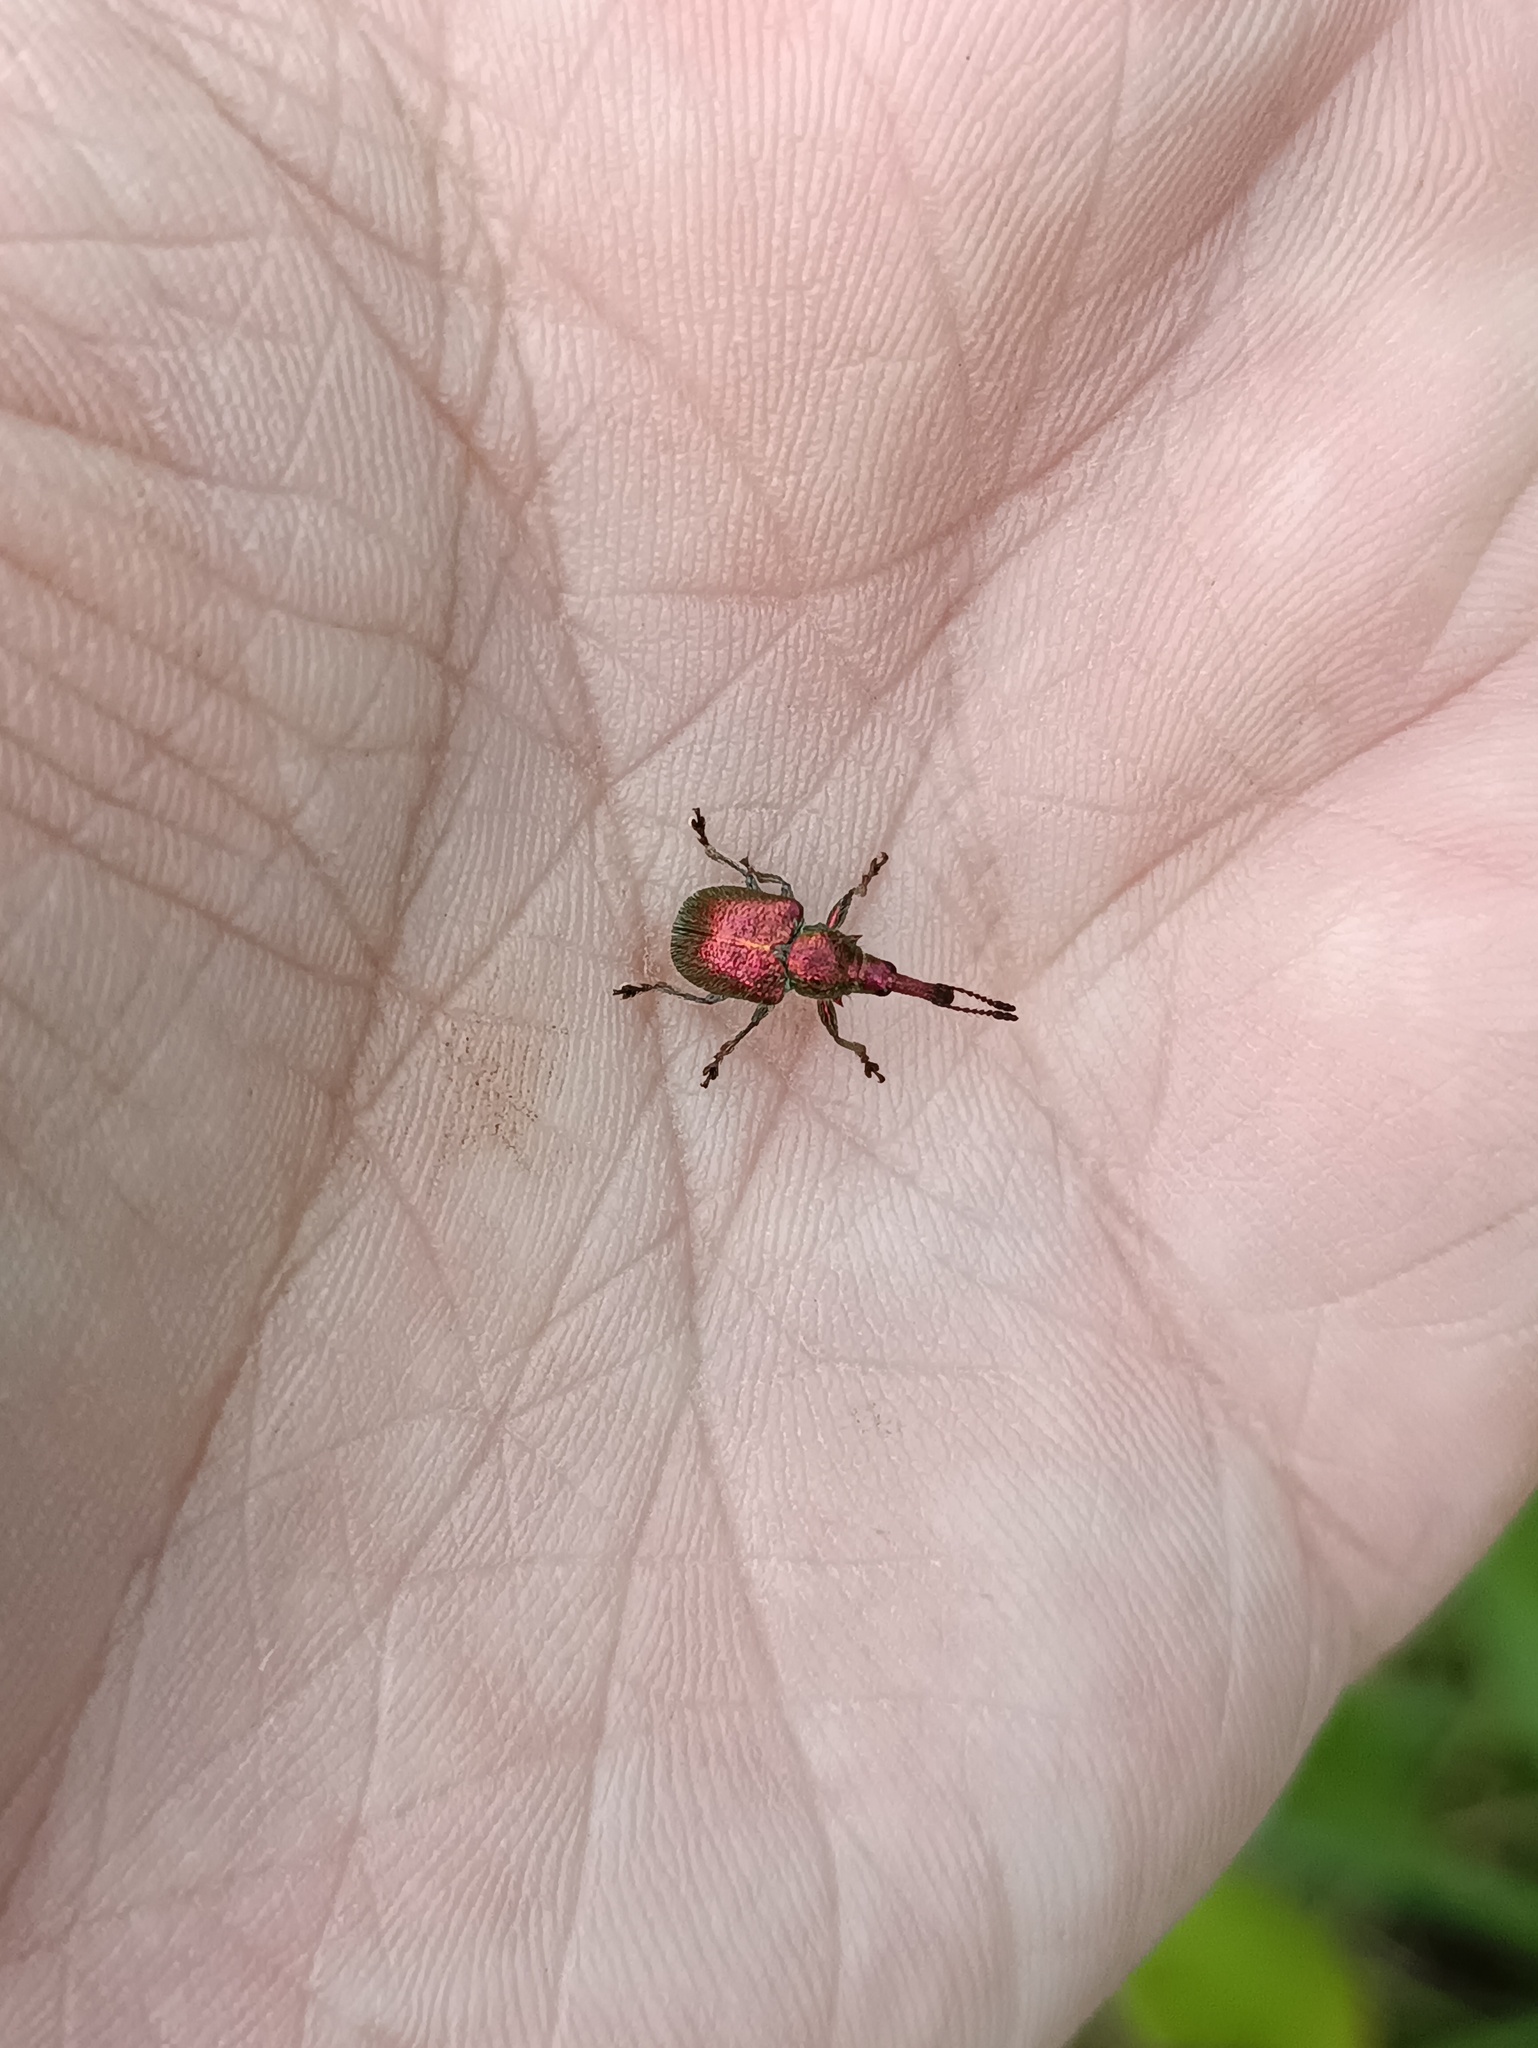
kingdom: Animalia
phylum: Arthropoda
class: Insecta
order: Coleoptera
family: Attelabidae
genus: Rhynchites
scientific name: Rhynchites auratus
